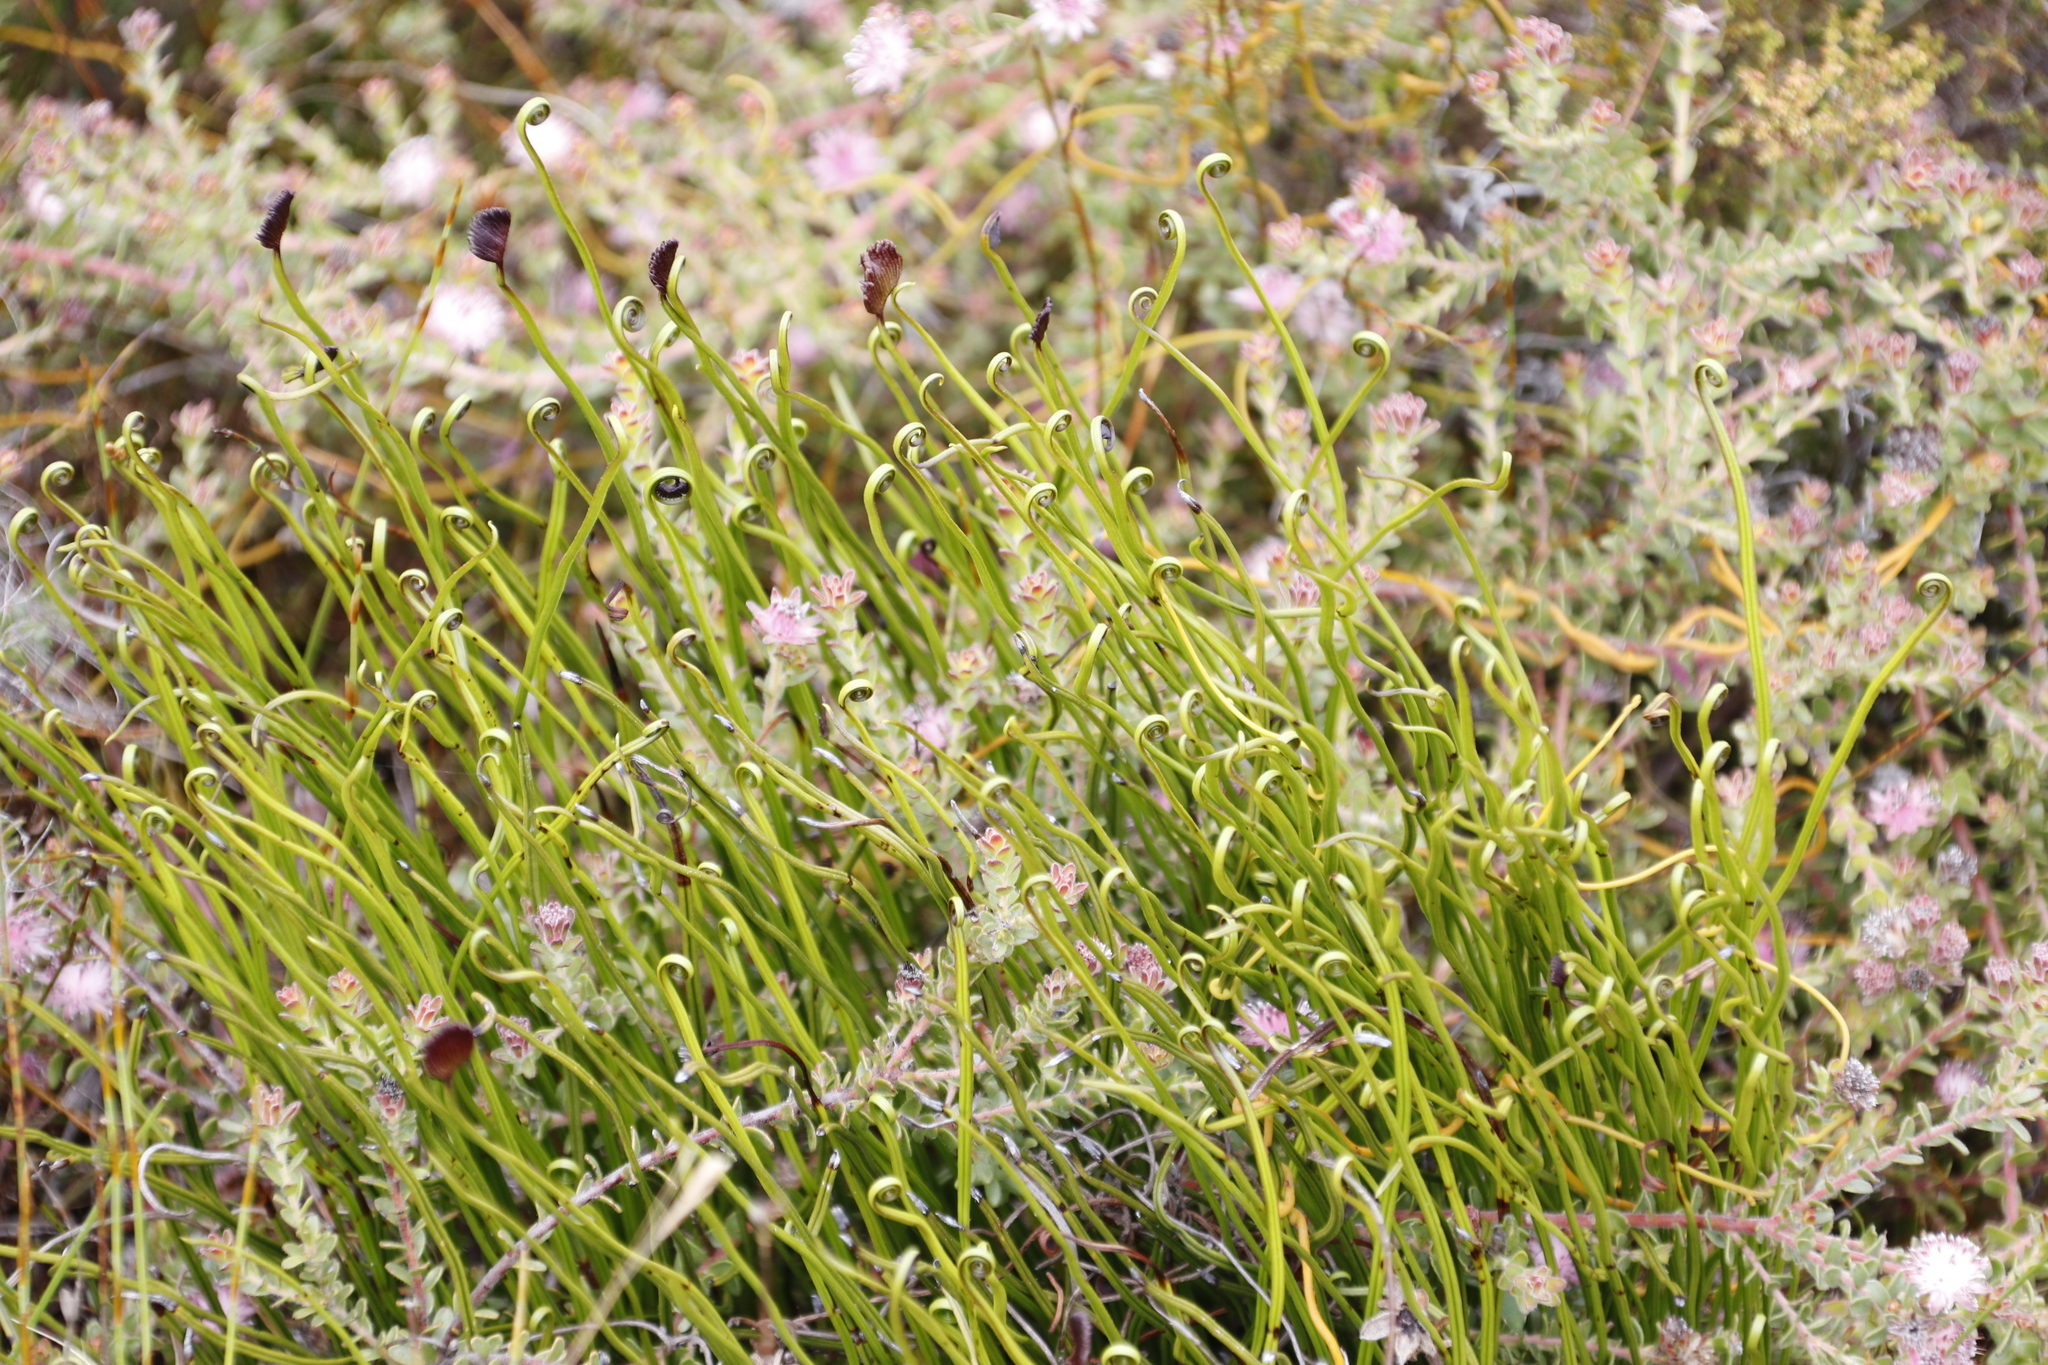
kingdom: Plantae
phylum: Tracheophyta
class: Polypodiopsida
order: Schizaeales
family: Schizaeaceae
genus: Schizaea
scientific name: Schizaea pectinata
